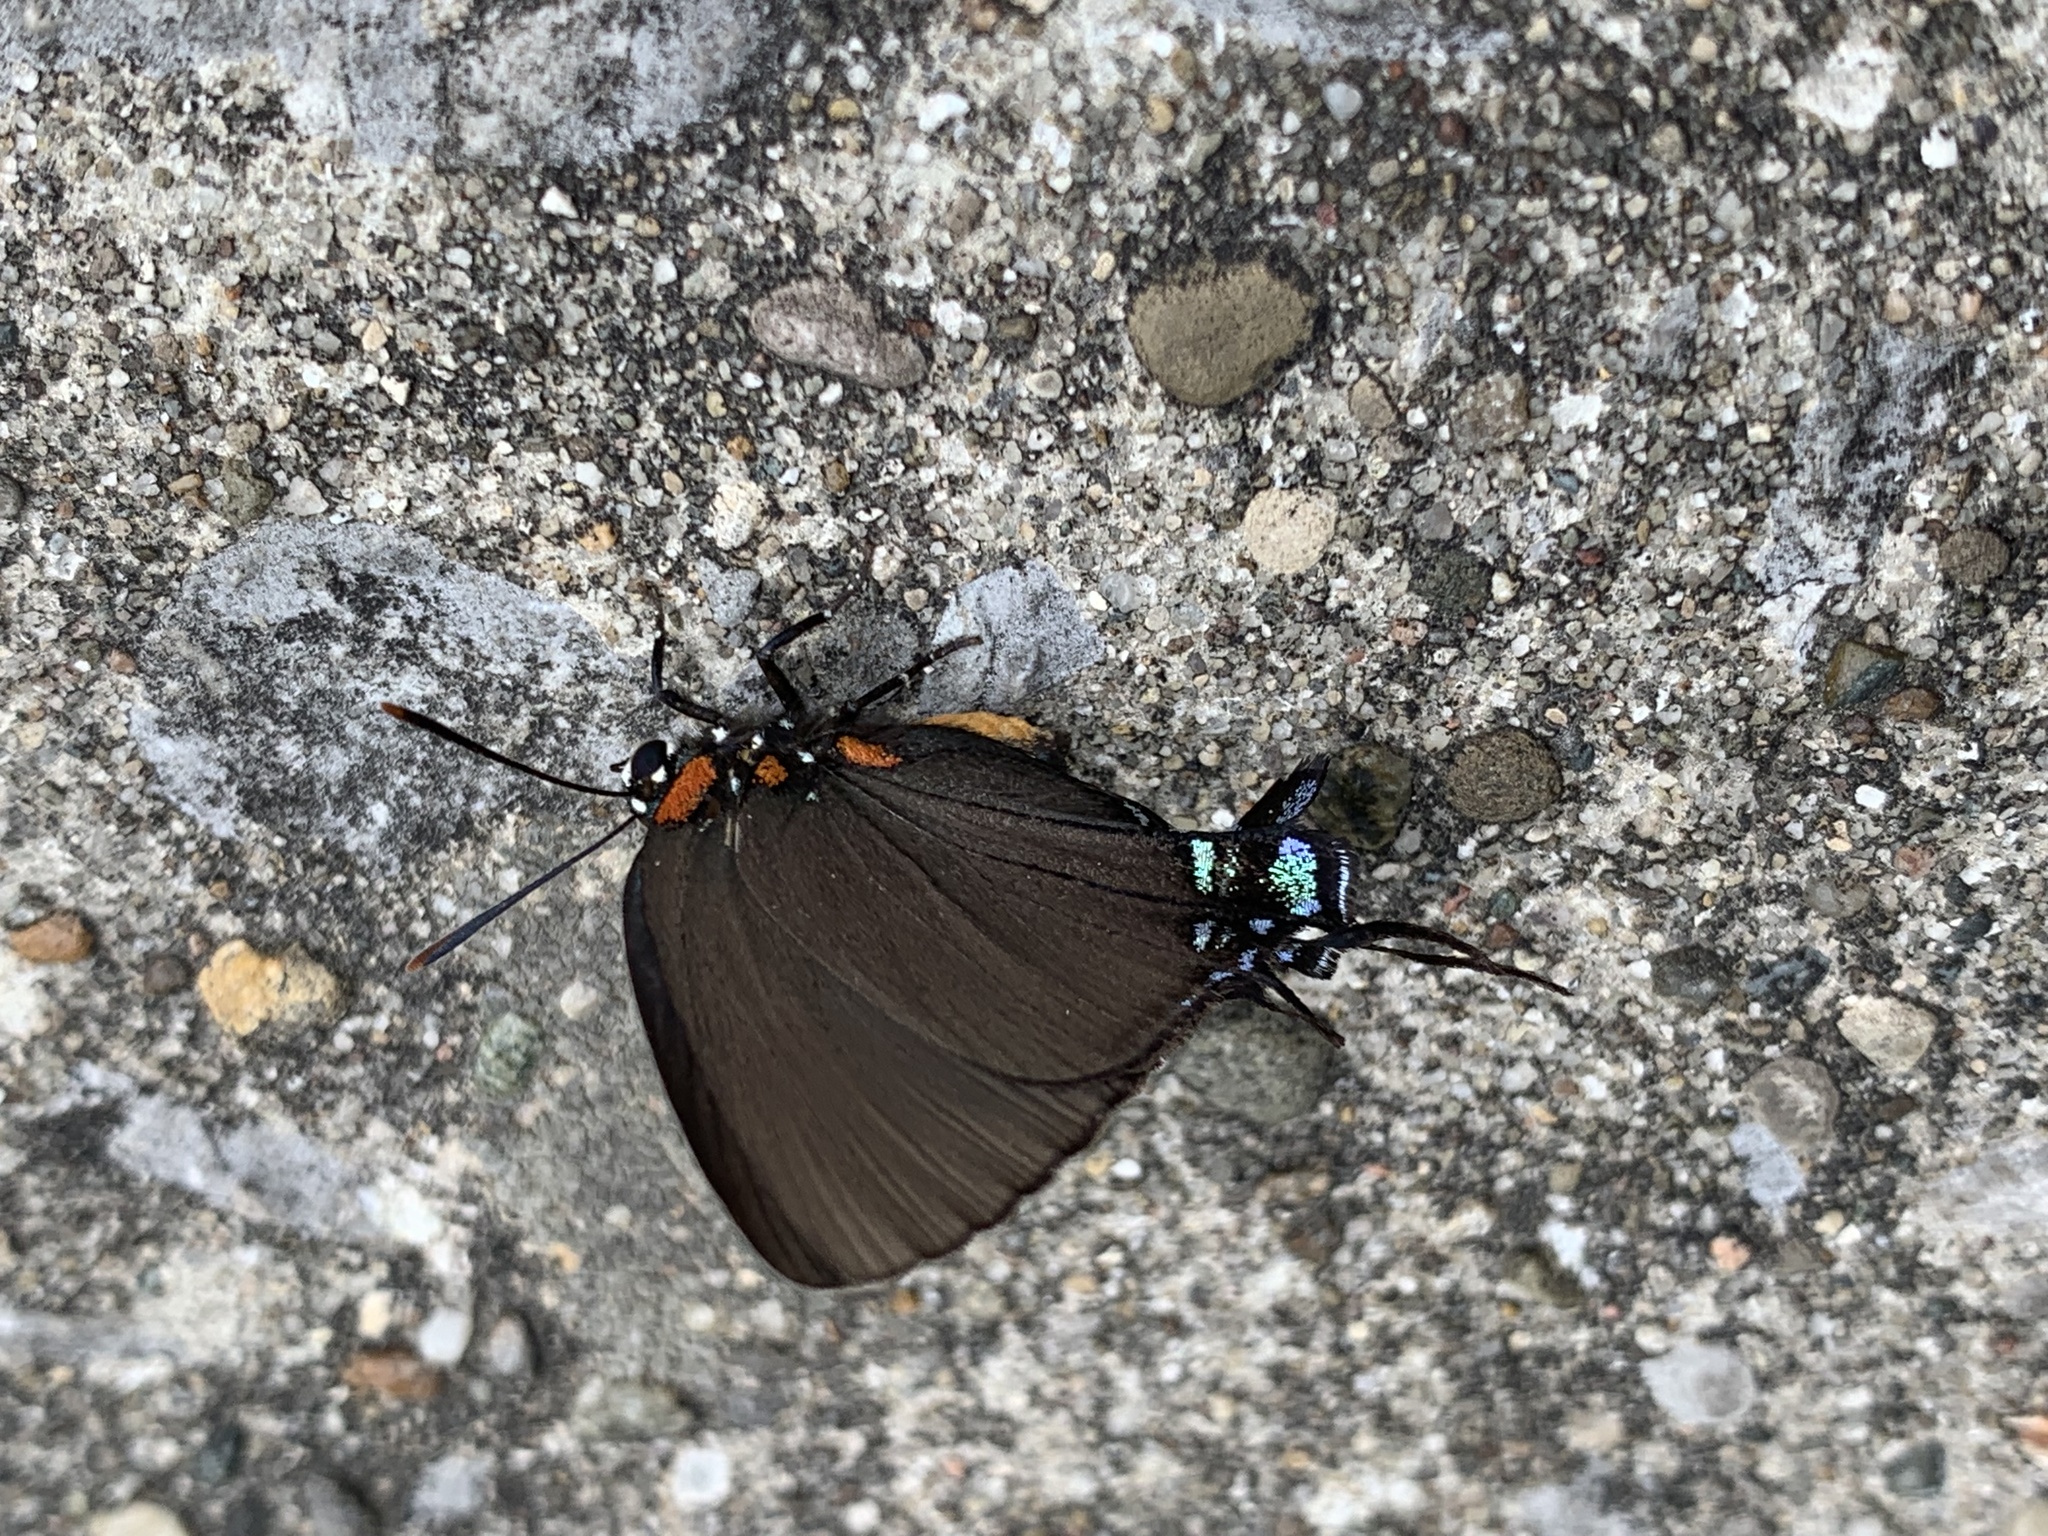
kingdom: Animalia
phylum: Arthropoda
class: Insecta
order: Lepidoptera
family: Lycaenidae
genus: Atlides
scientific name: Atlides halesus
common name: Great purple hairstreak
